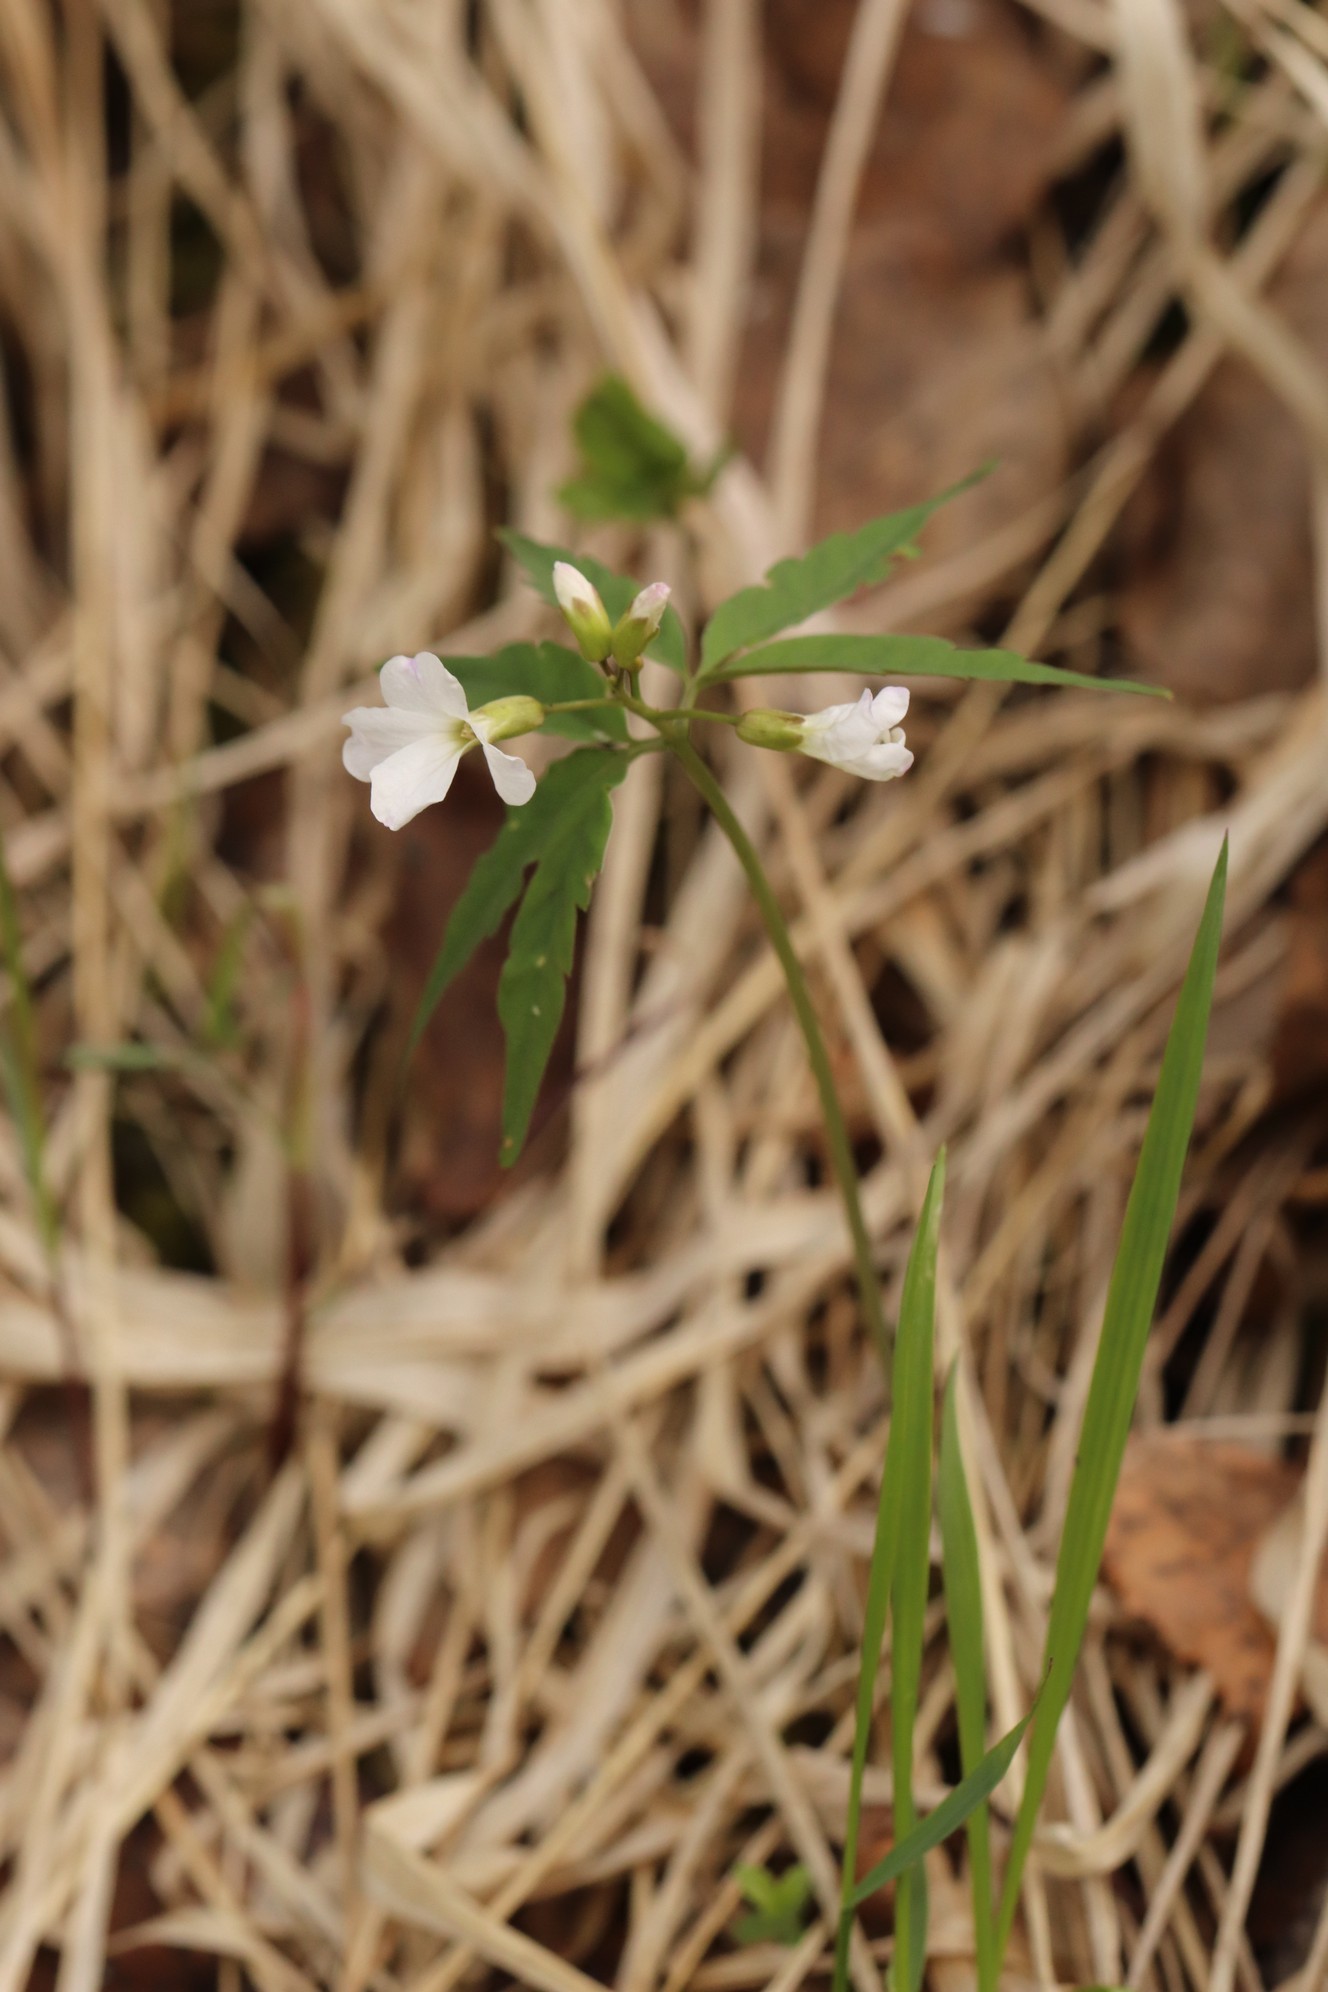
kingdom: Plantae
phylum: Tracheophyta
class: Magnoliopsida
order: Brassicales
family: Brassicaceae
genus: Cardamine
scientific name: Cardamine altaica
